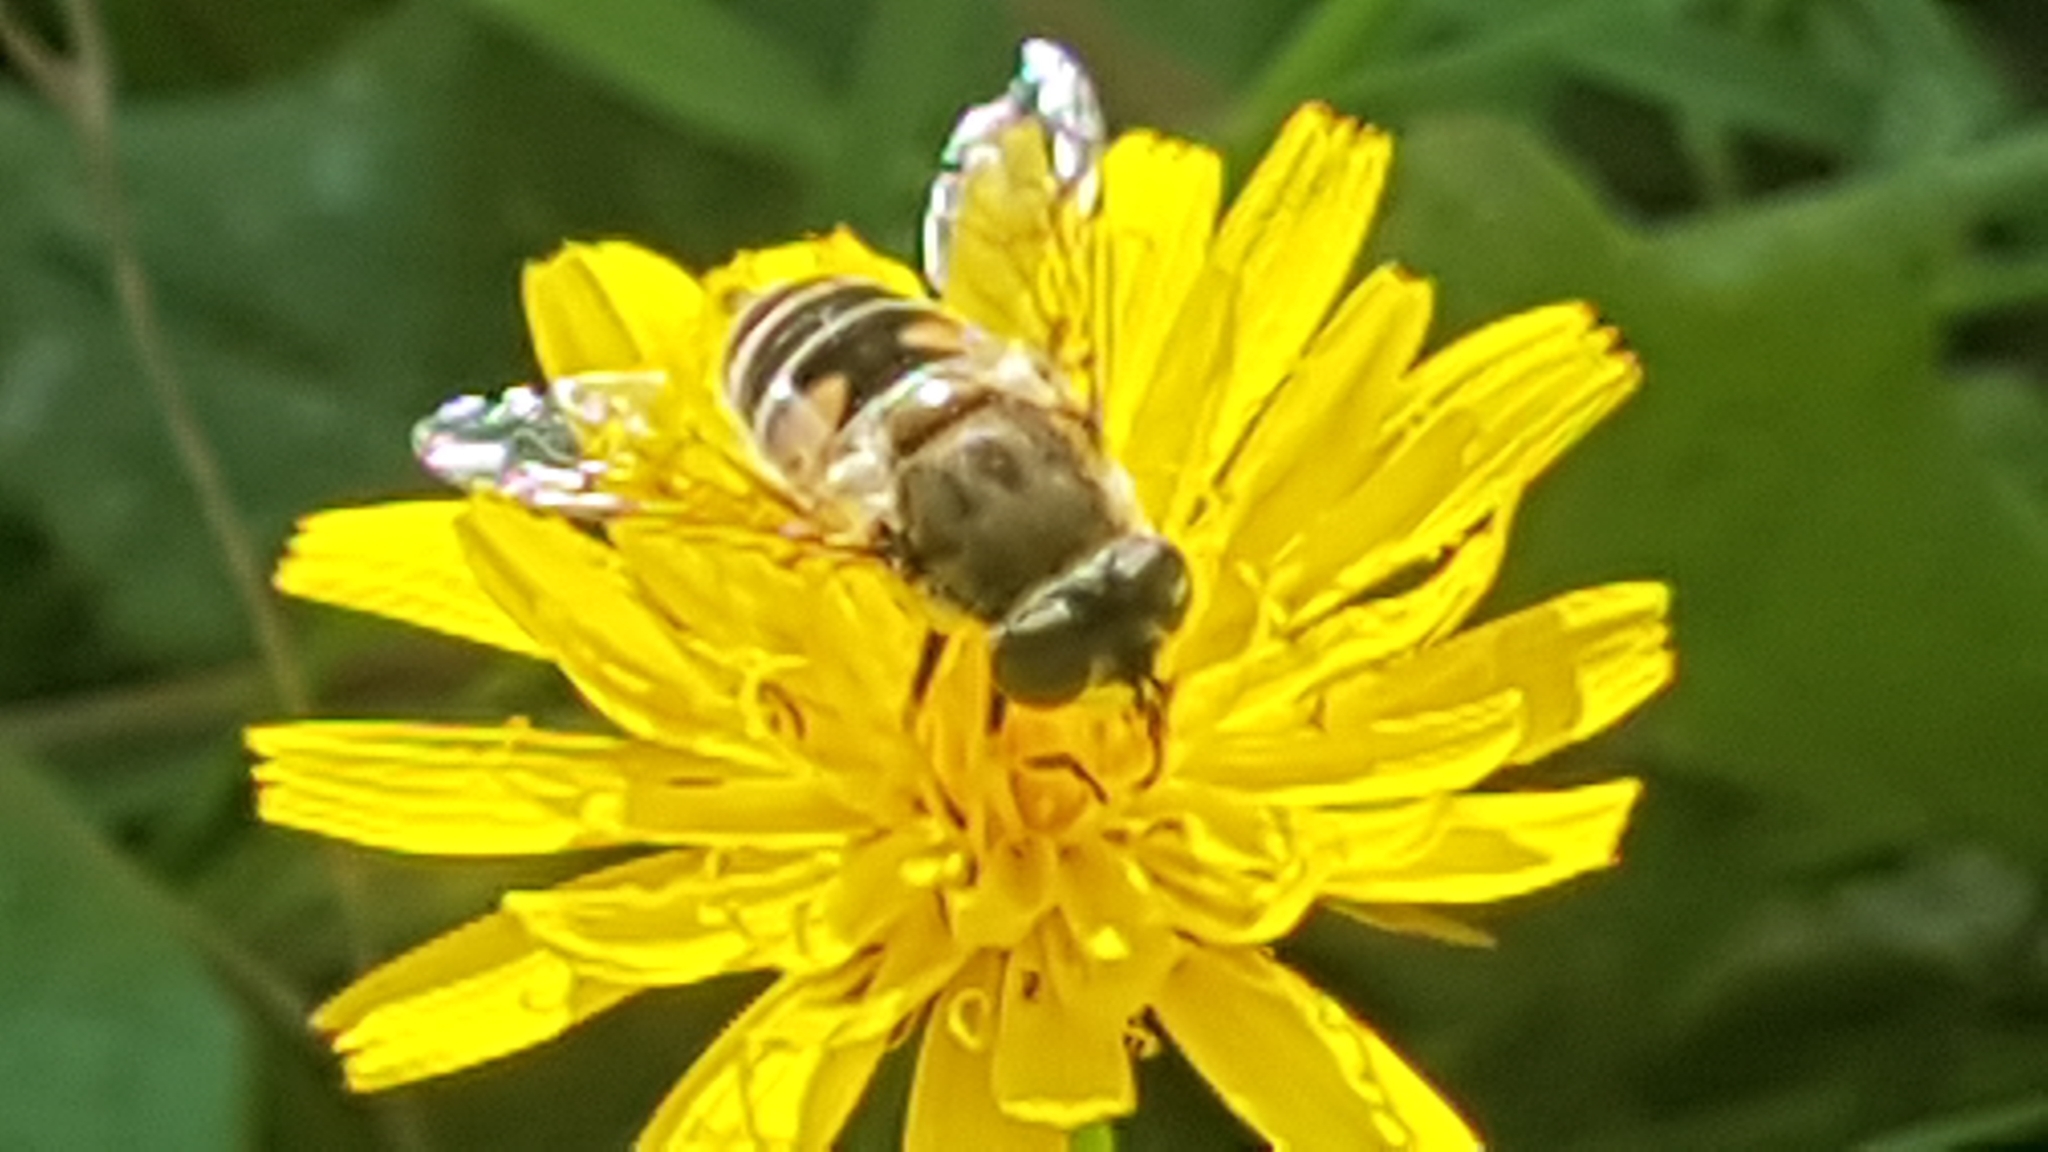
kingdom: Animalia
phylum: Arthropoda
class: Insecta
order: Diptera
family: Syrphidae
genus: Eristalis
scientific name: Eristalis arbustorum
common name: Hover fly
